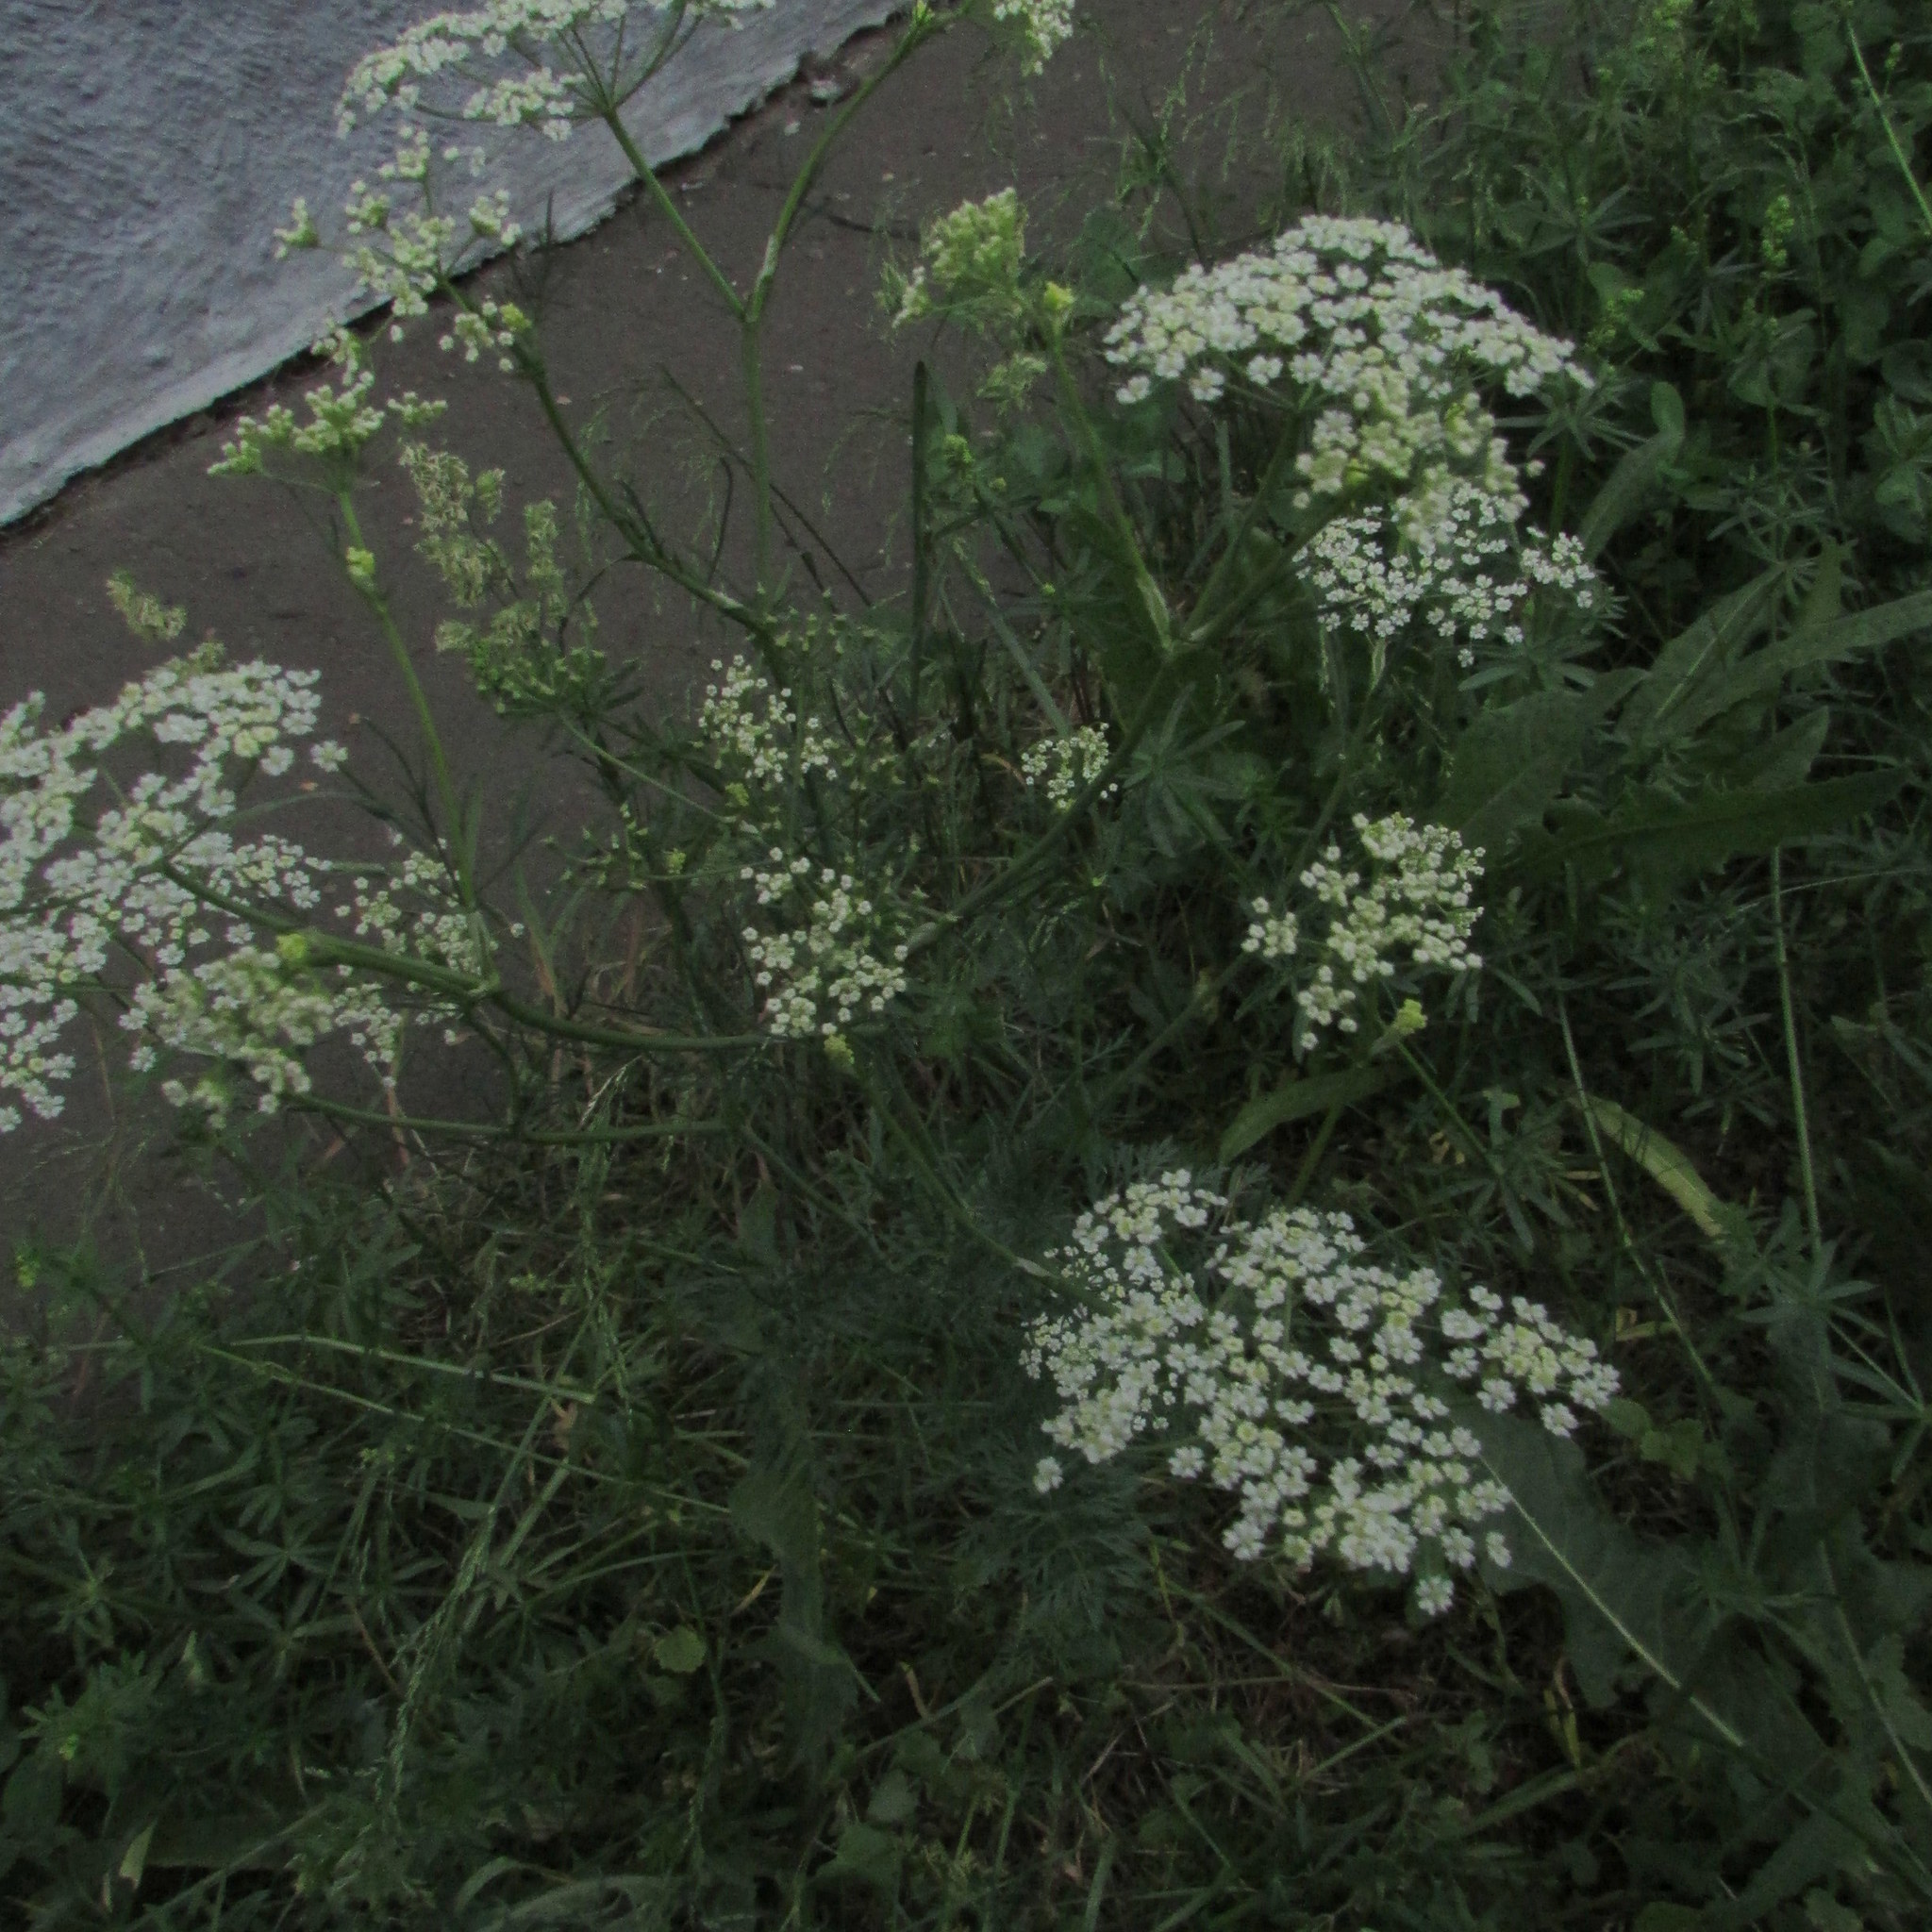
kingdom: Plantae
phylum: Tracheophyta
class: Magnoliopsida
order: Apiales
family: Apiaceae
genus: Carum
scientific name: Carum carvi
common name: Caraway
